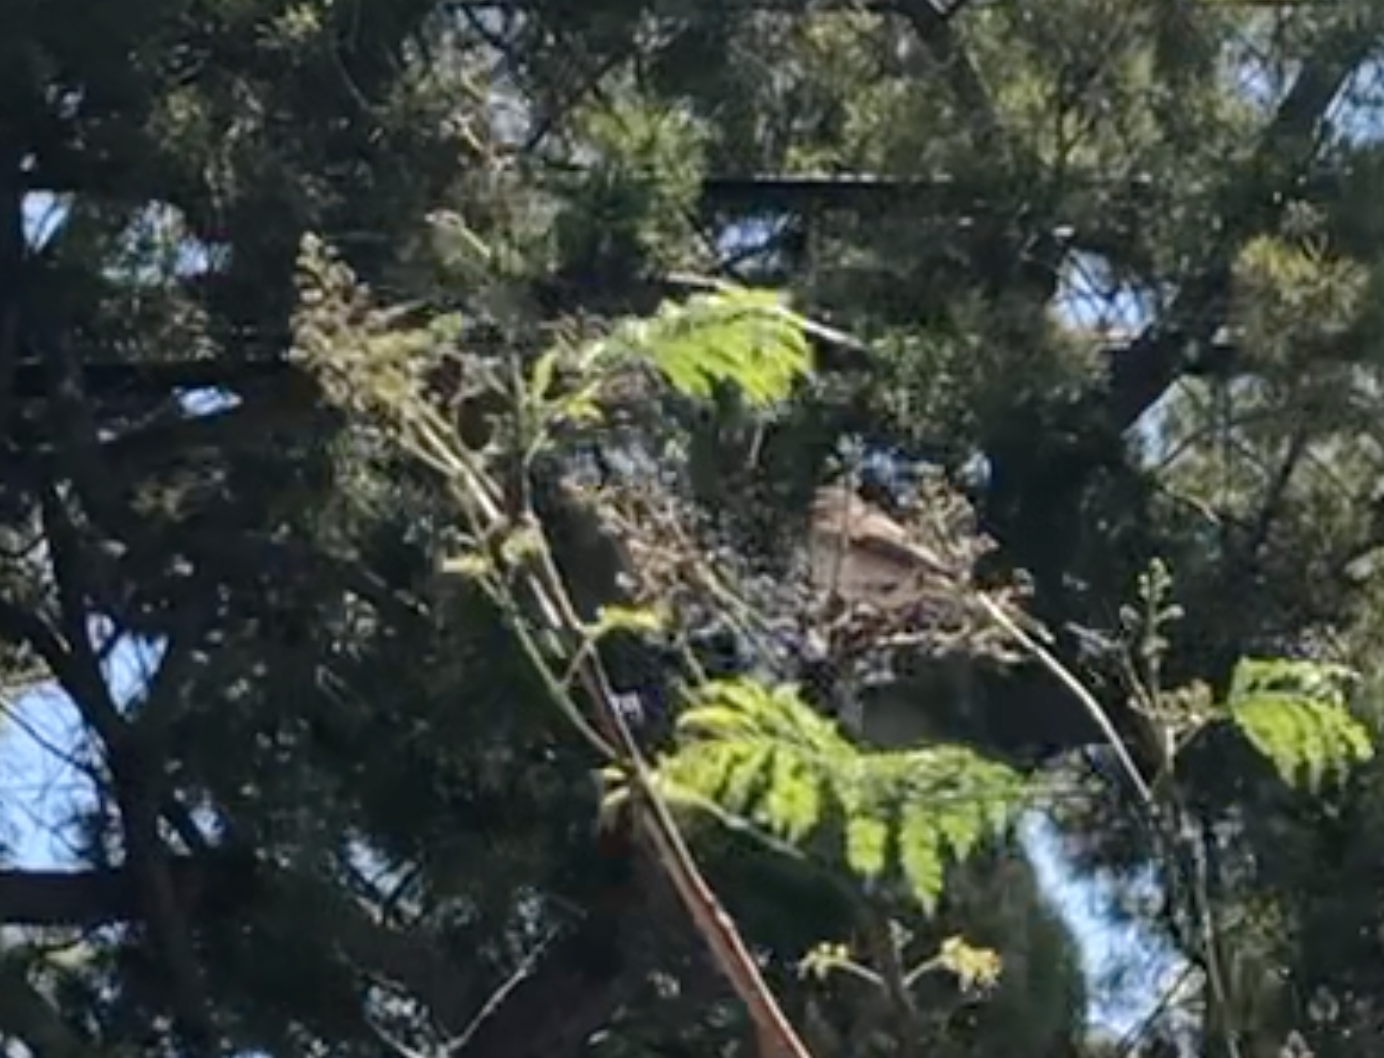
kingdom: Animalia
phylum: Chordata
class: Aves
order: Passeriformes
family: Passerellidae
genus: Junco
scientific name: Junco hyemalis
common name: Dark-eyed junco
